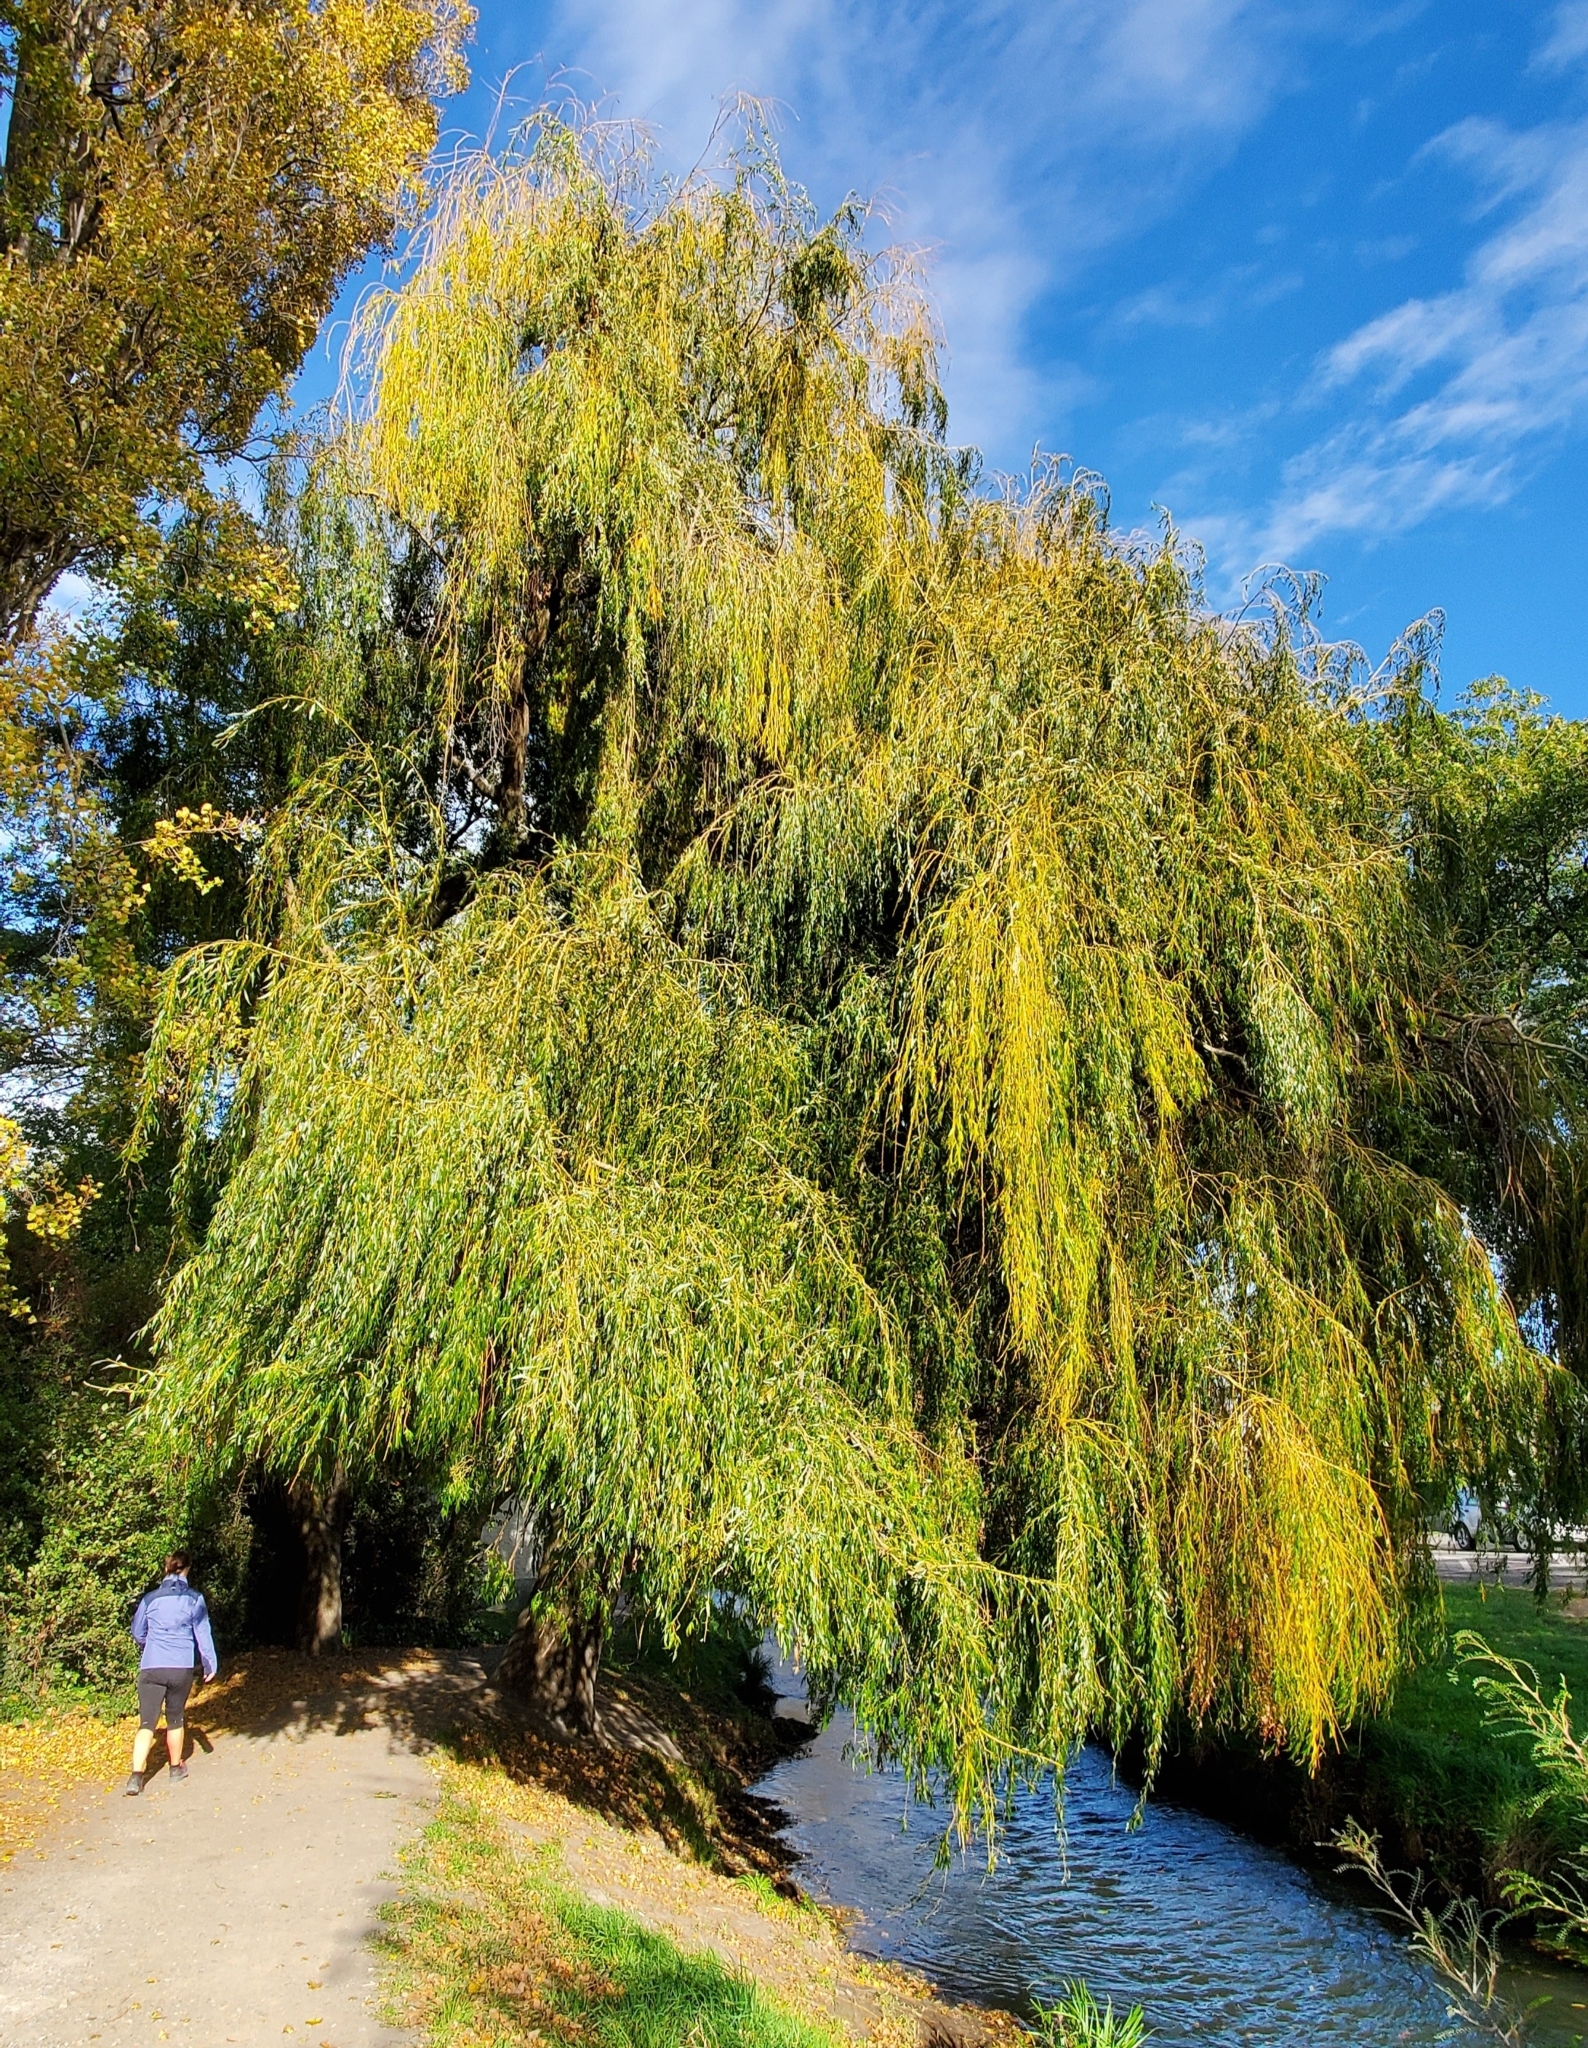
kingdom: Plantae
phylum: Tracheophyta
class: Magnoliopsida
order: Malpighiales
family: Salicaceae
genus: Salix
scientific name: Salix babylonica
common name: Weeping willow
